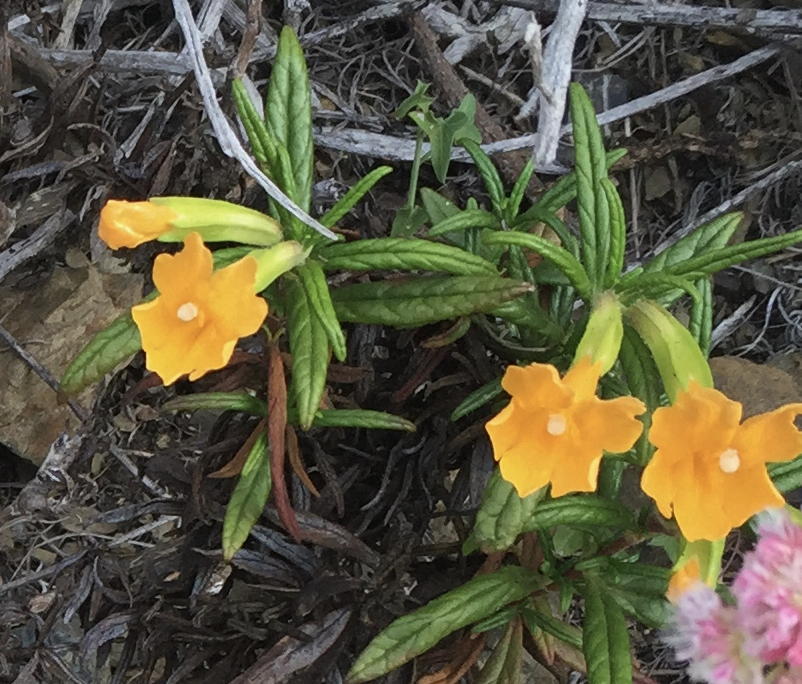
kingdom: Plantae
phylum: Tracheophyta
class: Magnoliopsida
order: Lamiales
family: Phrymaceae
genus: Diplacus
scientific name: Diplacus aurantiacus
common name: Bush monkey-flower
